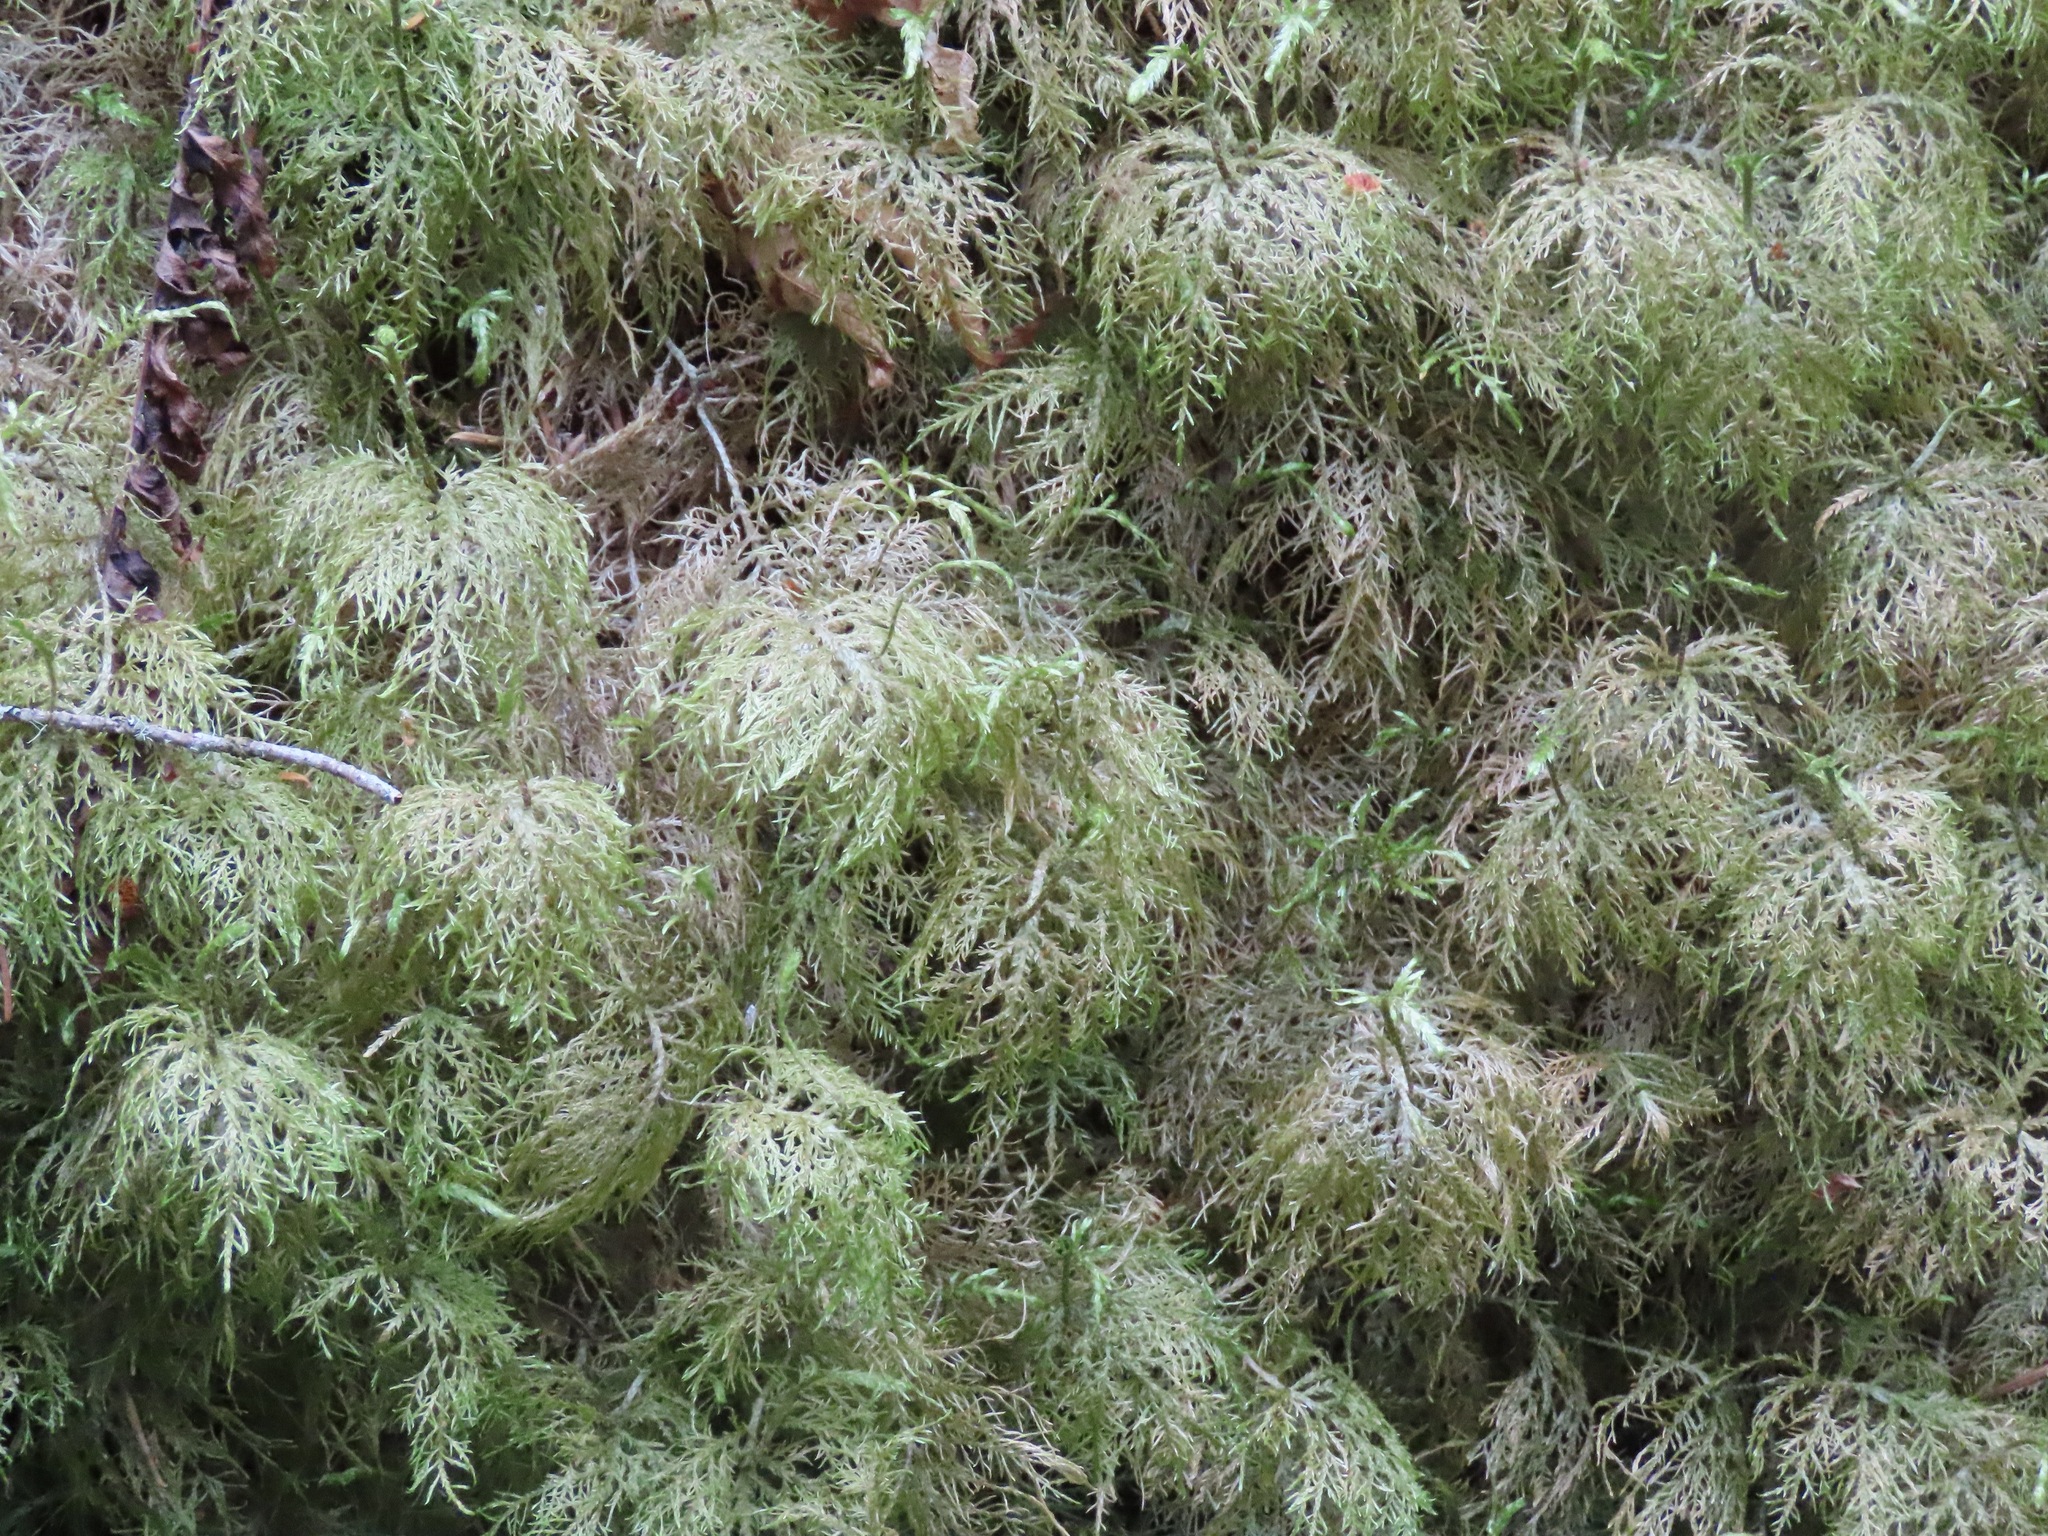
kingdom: Plantae
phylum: Bryophyta
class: Bryopsida
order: Hypnales
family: Hylocomiaceae
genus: Hylocomium
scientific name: Hylocomium splendens
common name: Stairstep moss
